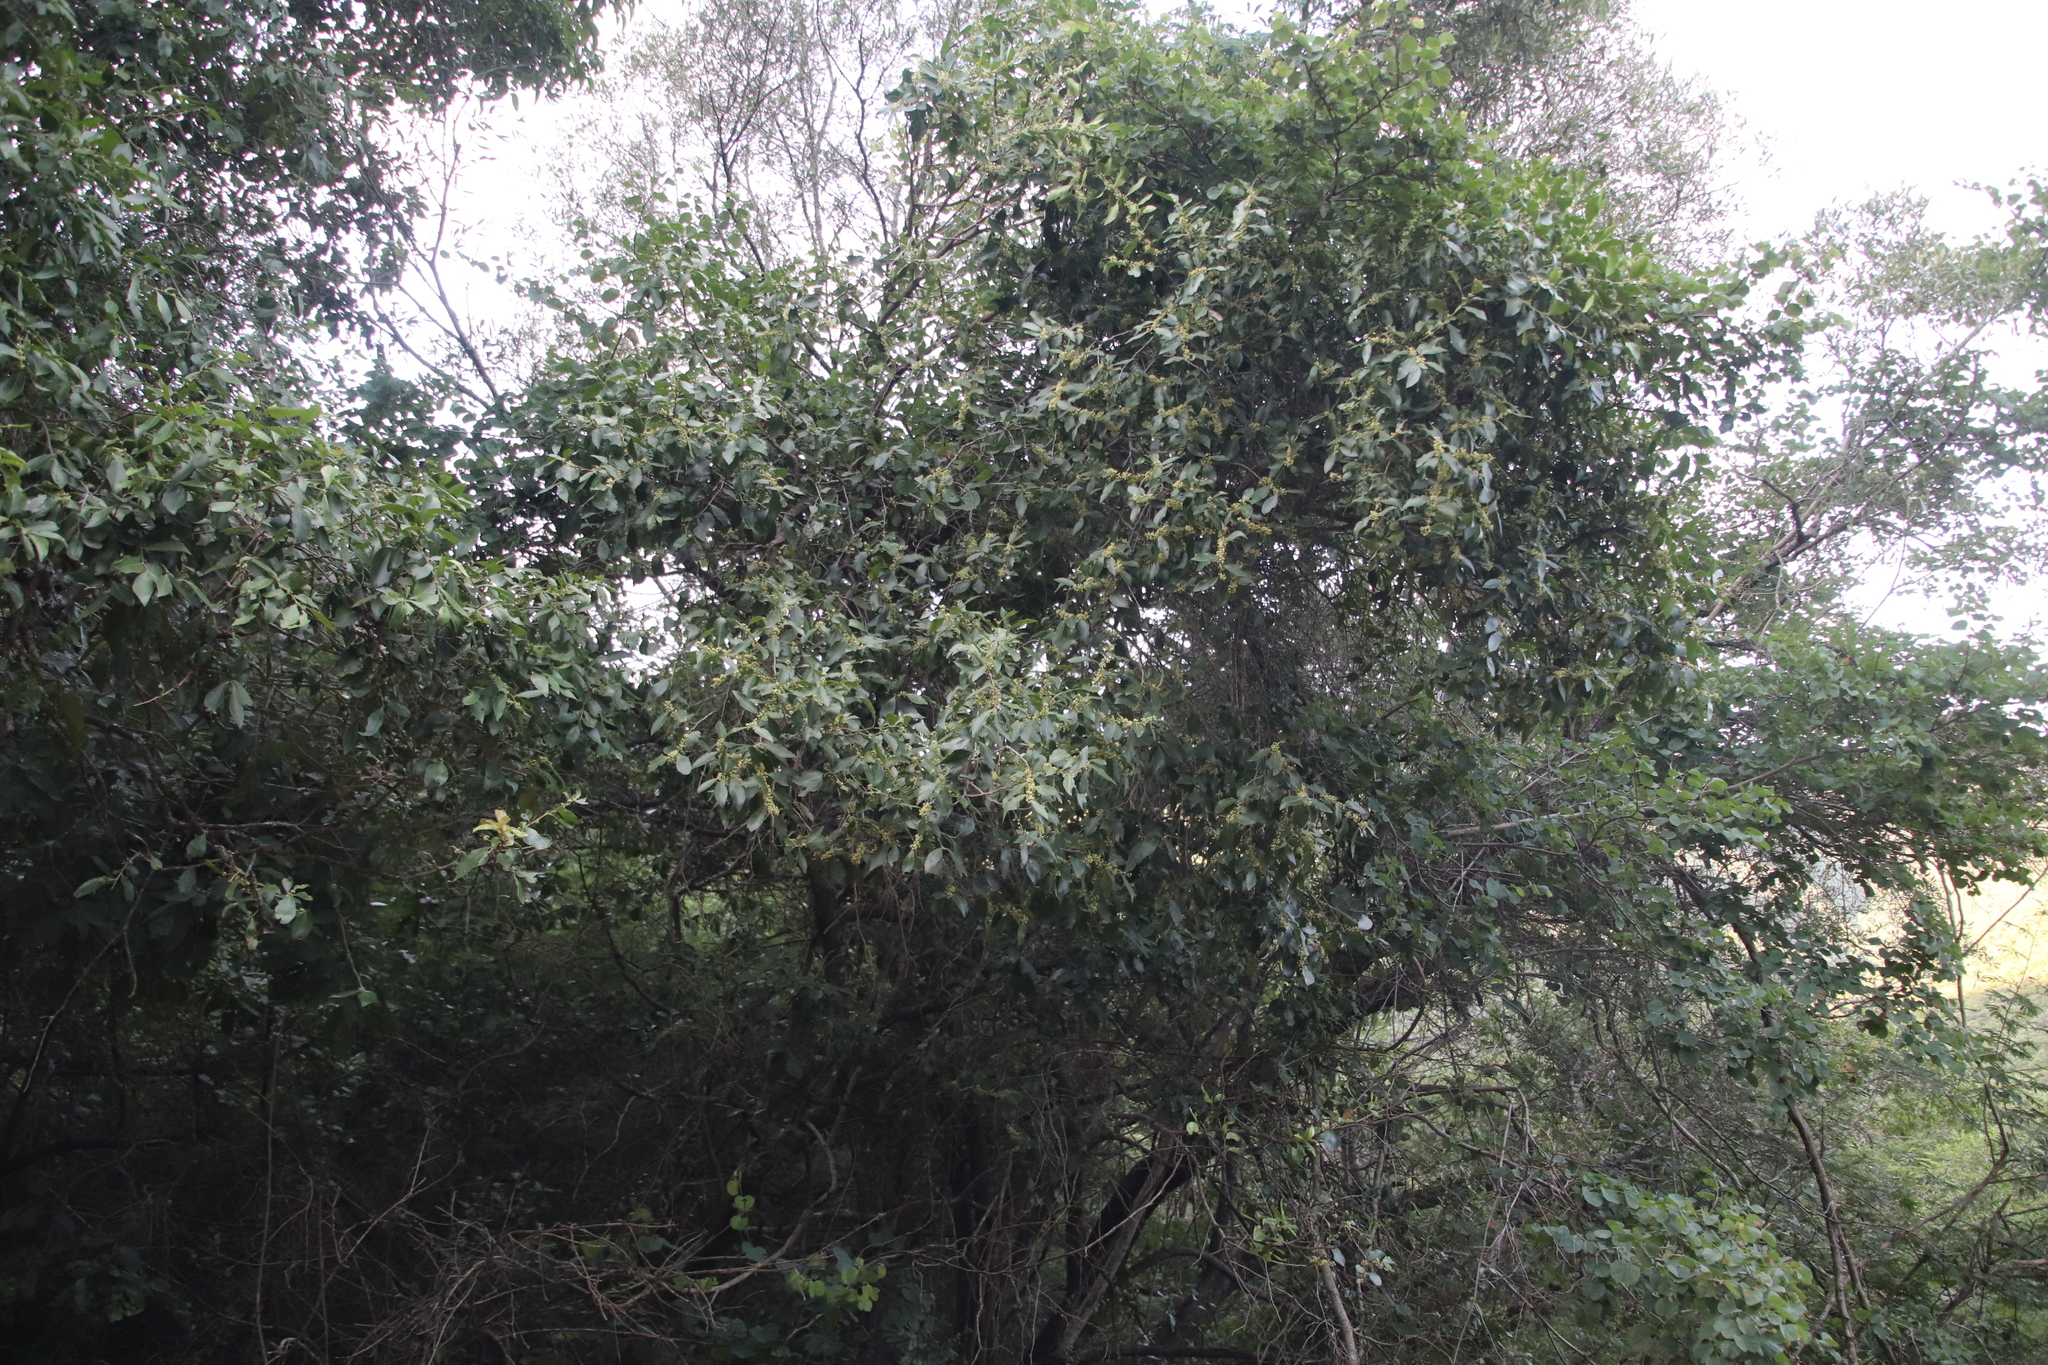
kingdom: Plantae
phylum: Tracheophyta
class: Magnoliopsida
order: Celastrales
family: Celastraceae
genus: Gymnosporia
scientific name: Gymnosporia undata
